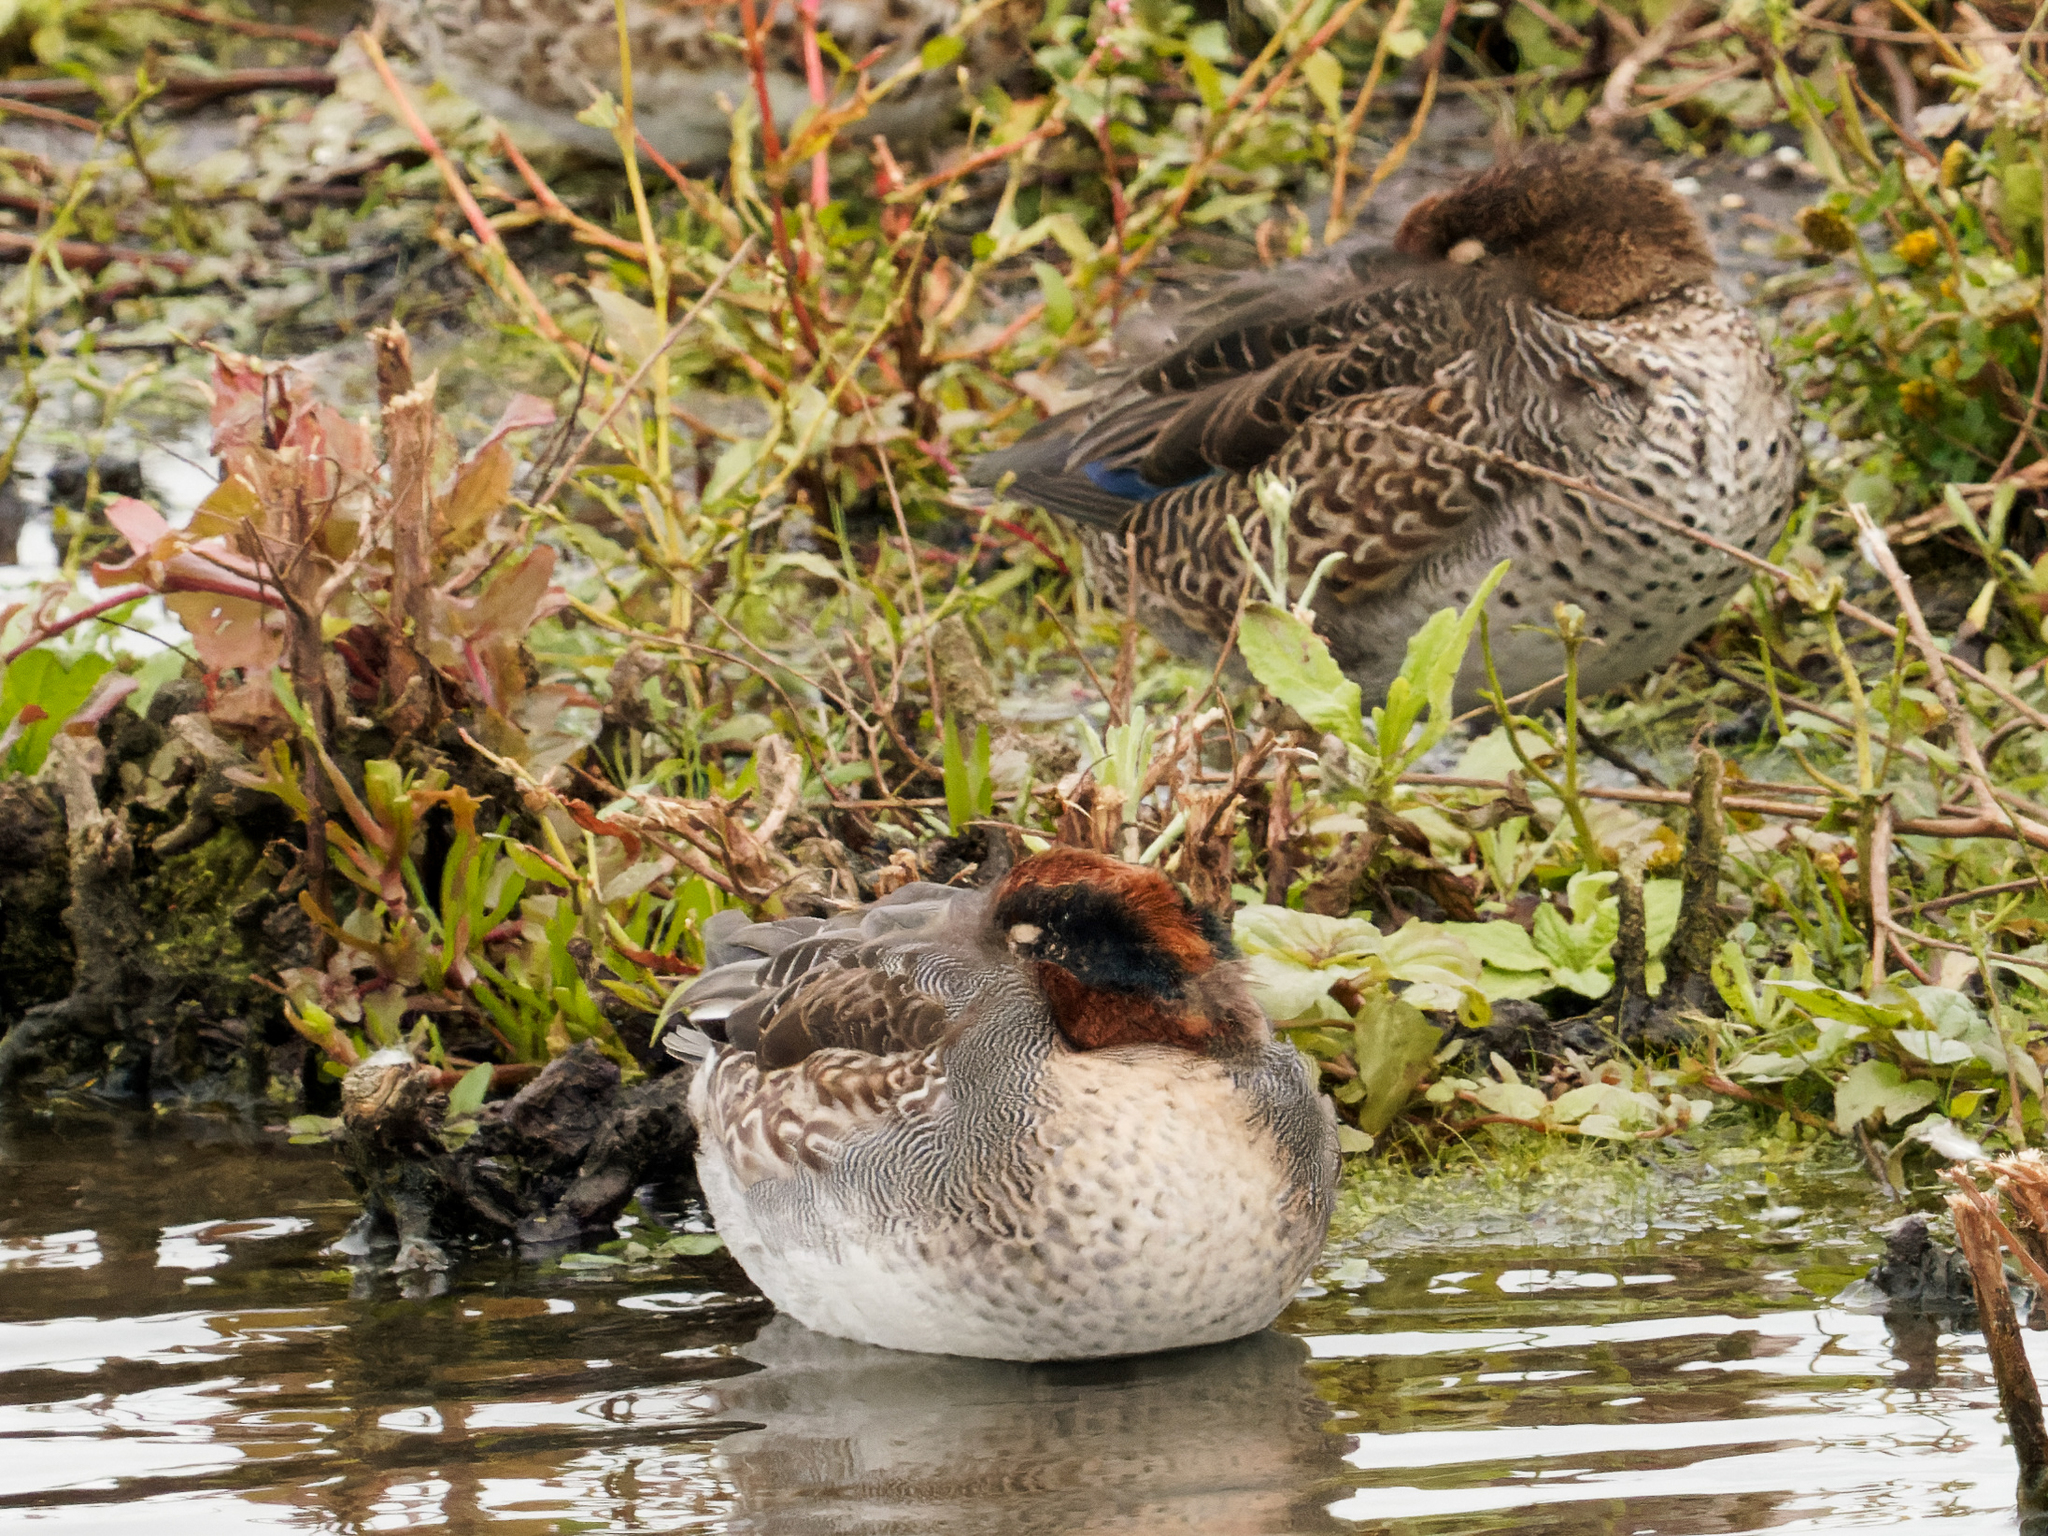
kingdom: Animalia
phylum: Chordata
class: Aves
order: Anseriformes
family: Anatidae
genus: Anas
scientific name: Anas crecca
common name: Eurasian teal
